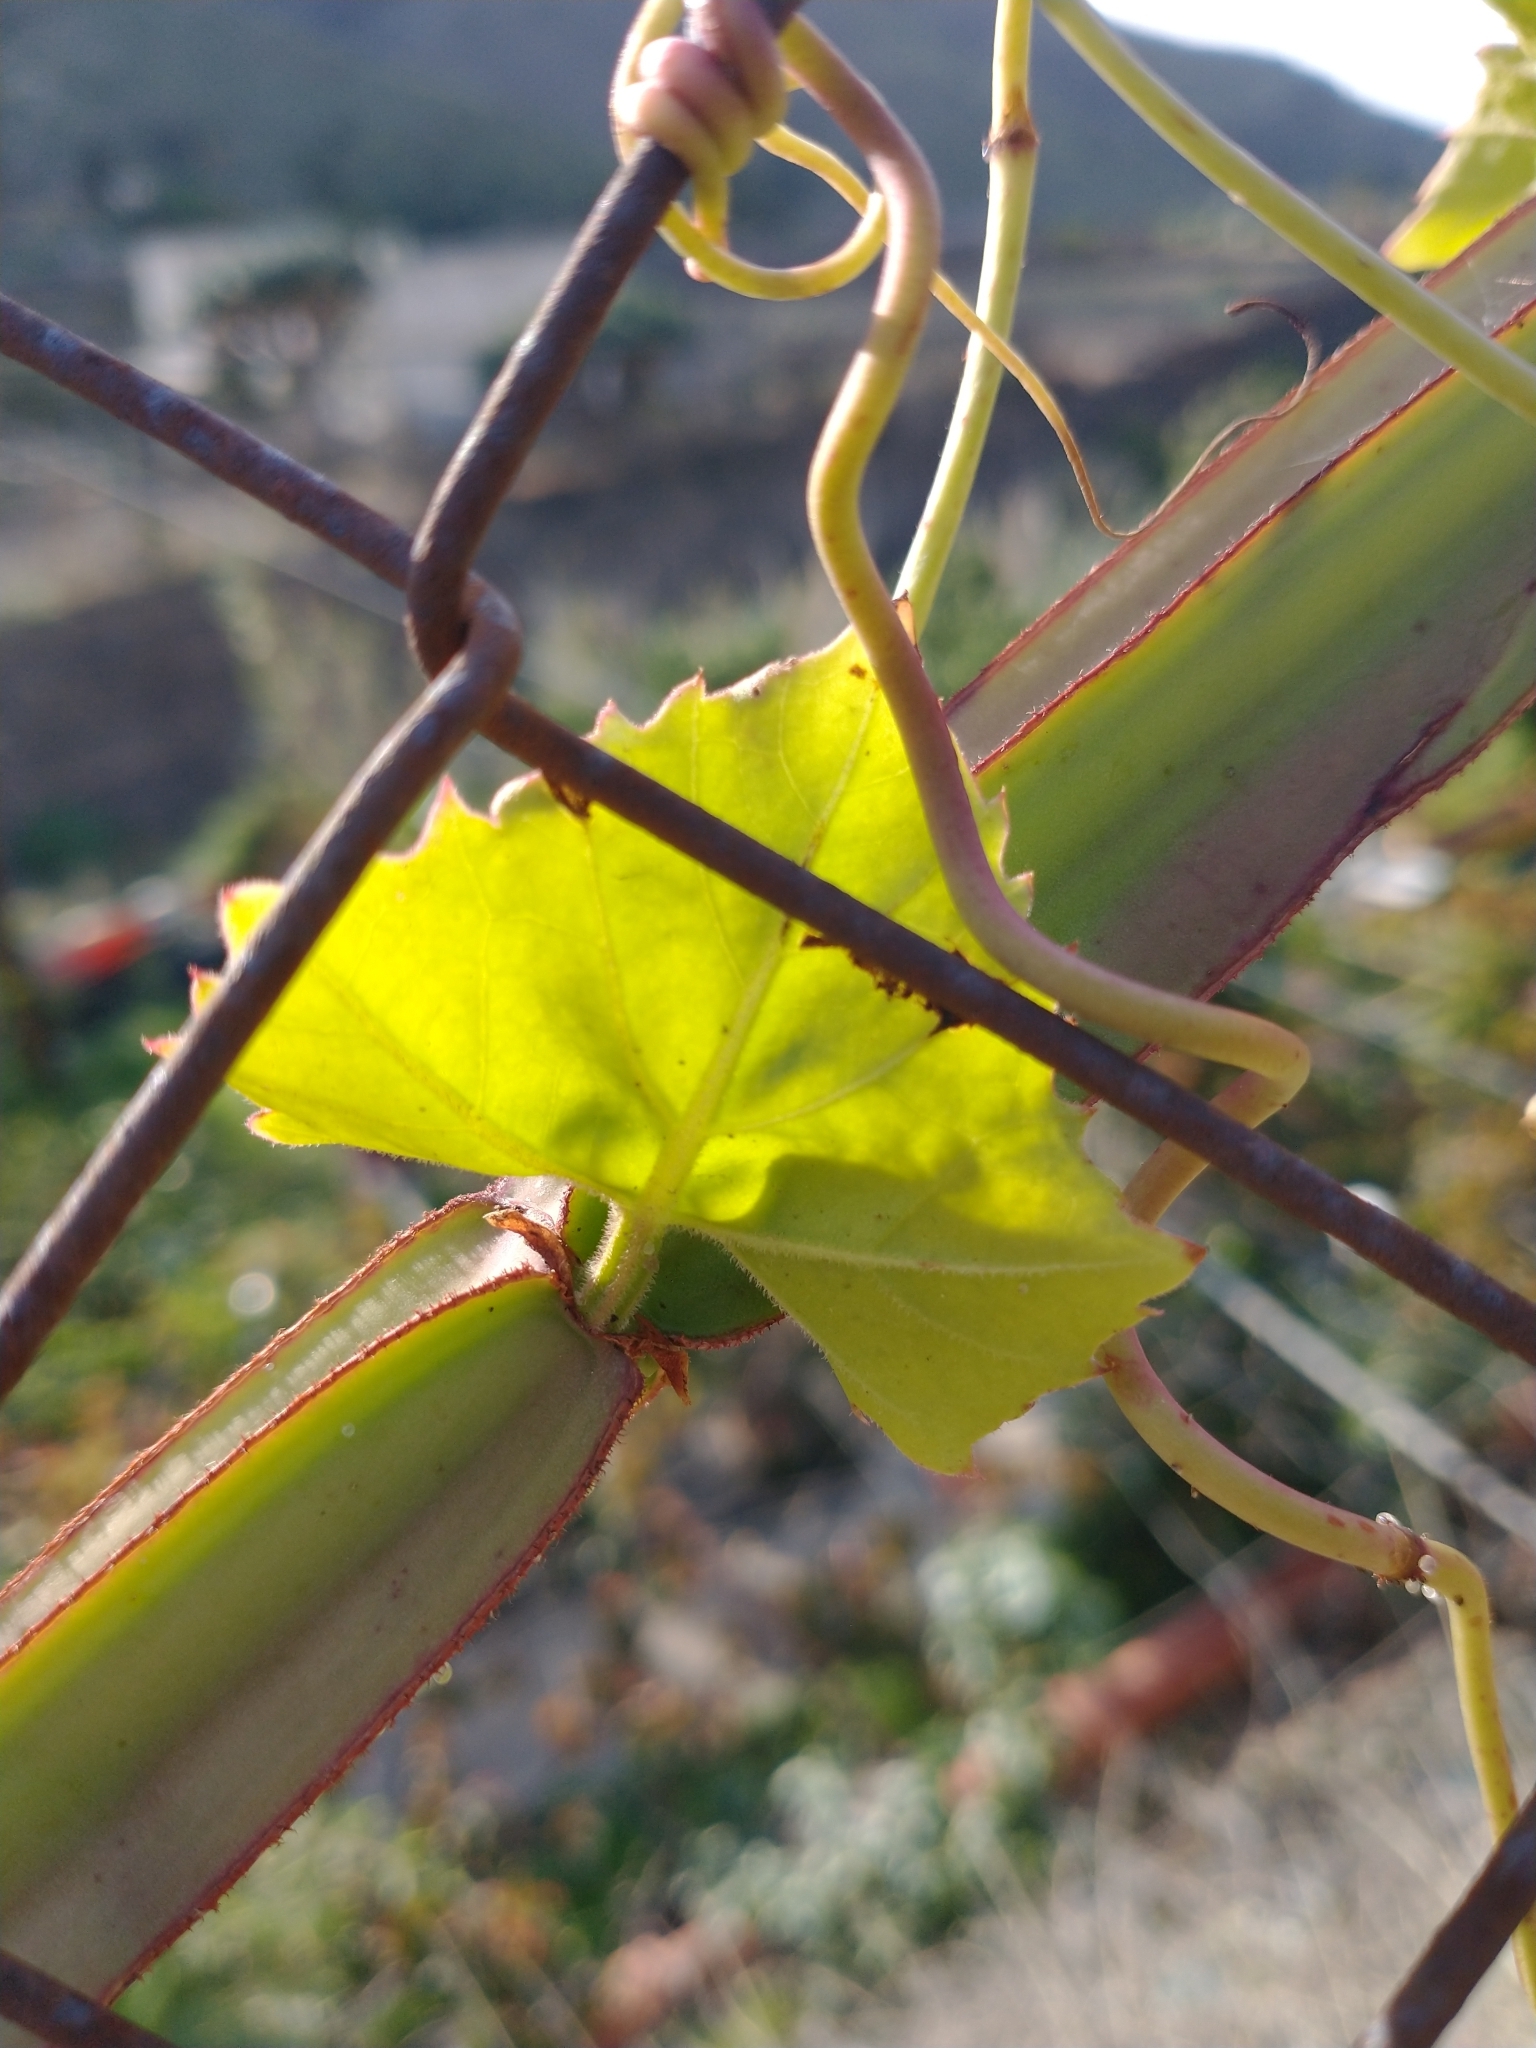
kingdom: Plantae
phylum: Tracheophyta
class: Magnoliopsida
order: Vitales
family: Vitaceae
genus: Cissus
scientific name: Cissus quadrangularis
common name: Veldt-grape
